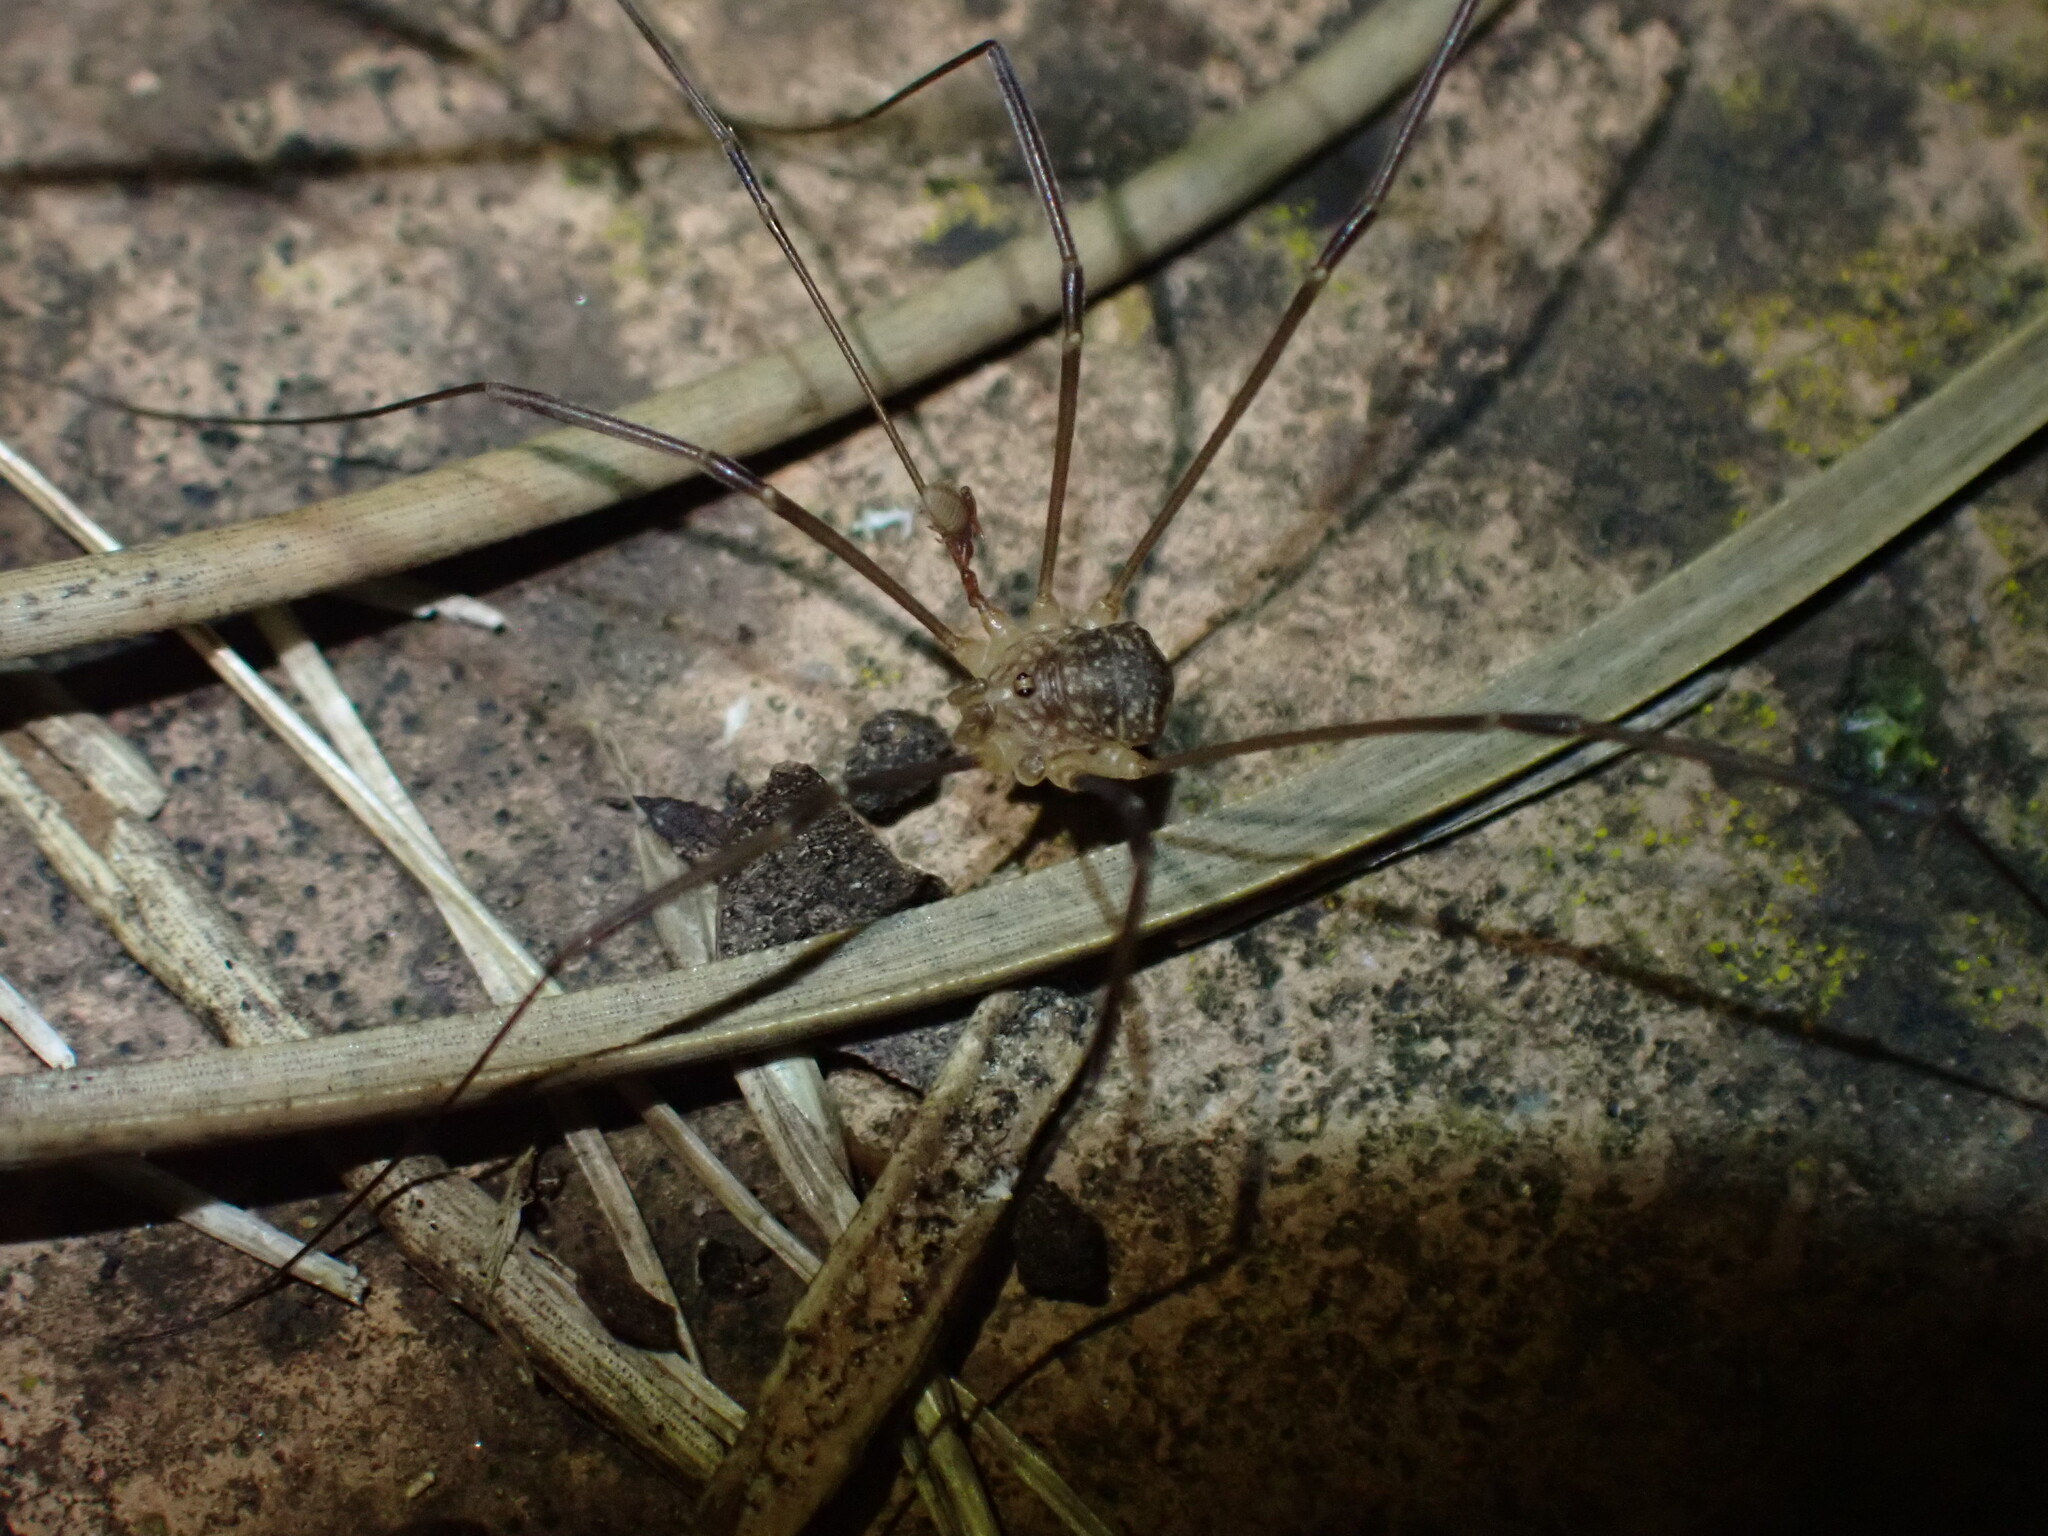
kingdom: Animalia
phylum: Arthropoda
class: Arachnida
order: Opiliones
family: Sclerosomatidae
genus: Nelima
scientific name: Nelima gothica
